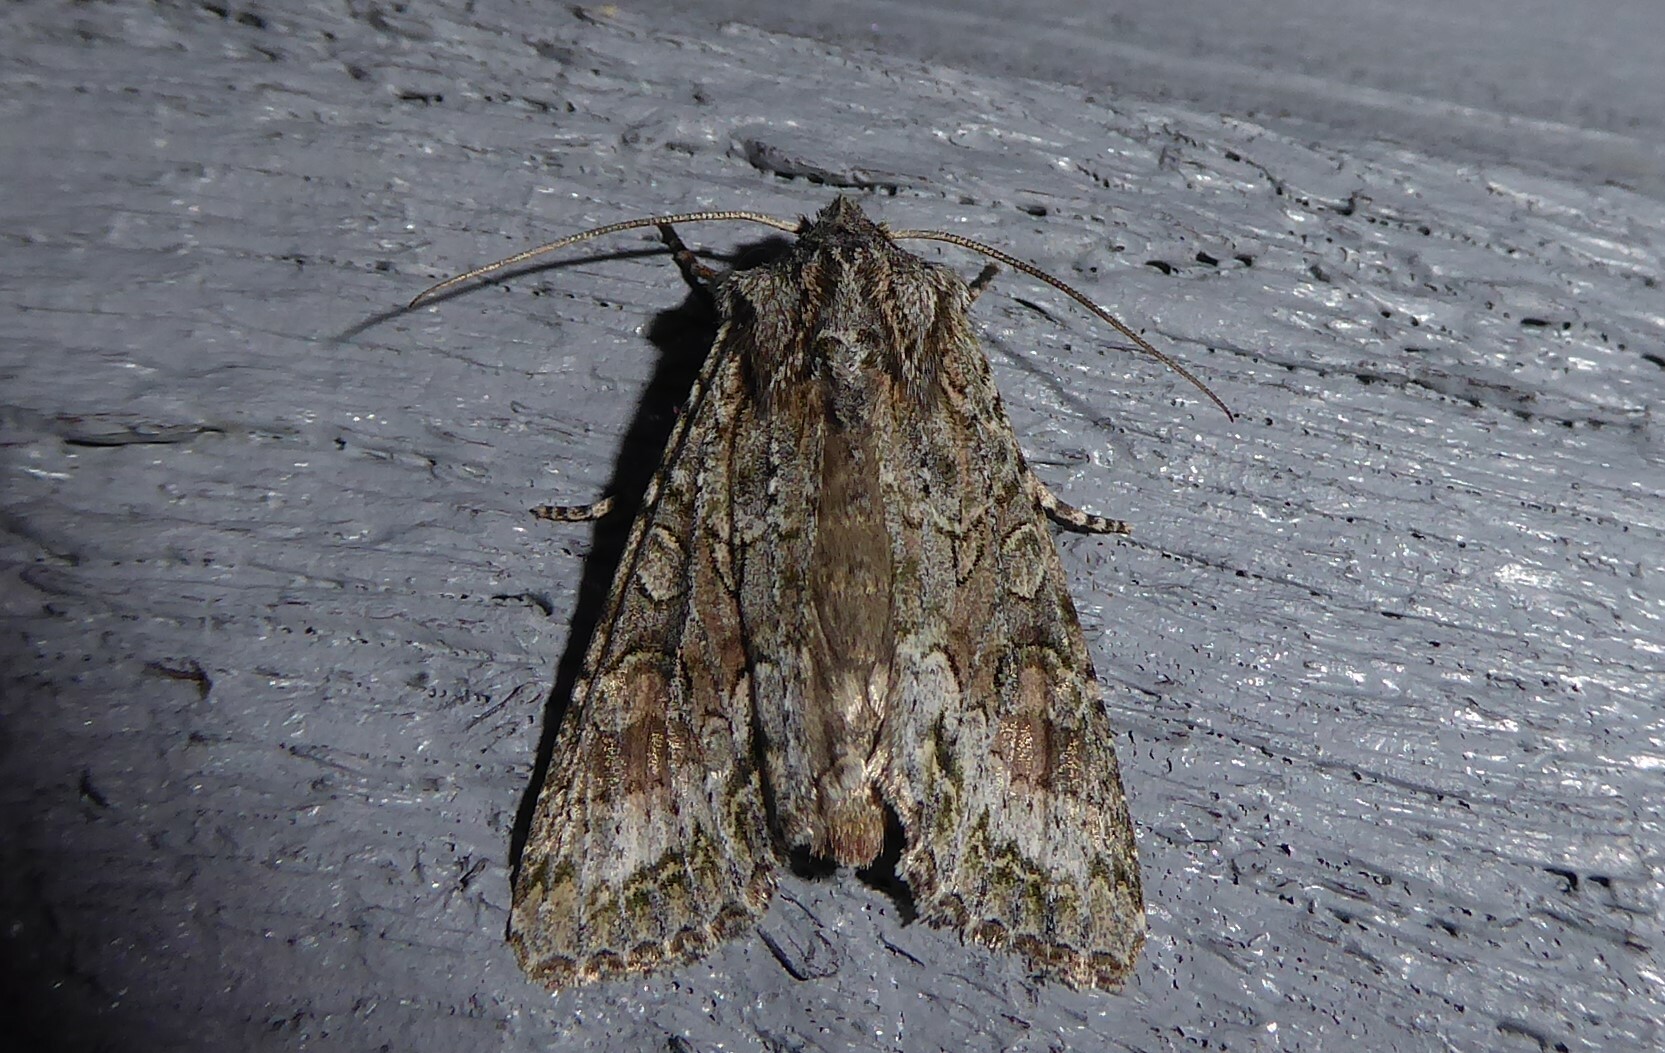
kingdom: Animalia
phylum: Arthropoda
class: Insecta
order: Lepidoptera
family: Noctuidae
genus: Ichneutica
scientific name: Ichneutica mutans
